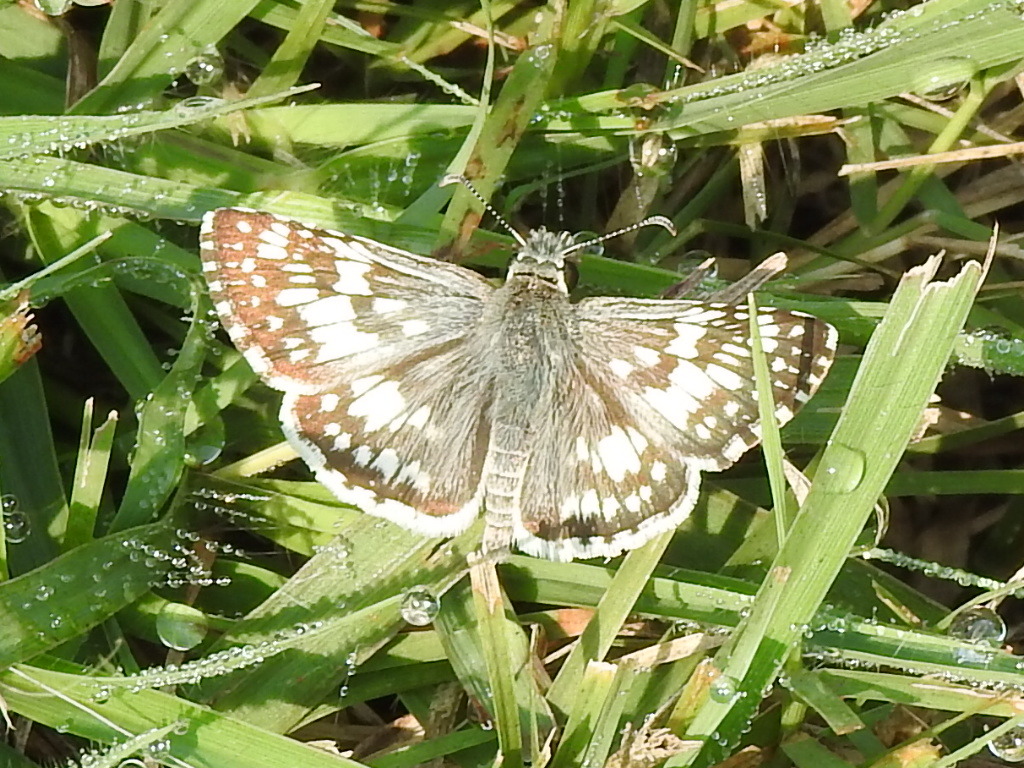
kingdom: Animalia
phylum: Arthropoda
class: Insecta
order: Lepidoptera
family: Hesperiidae
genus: Burnsius
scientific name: Burnsius
